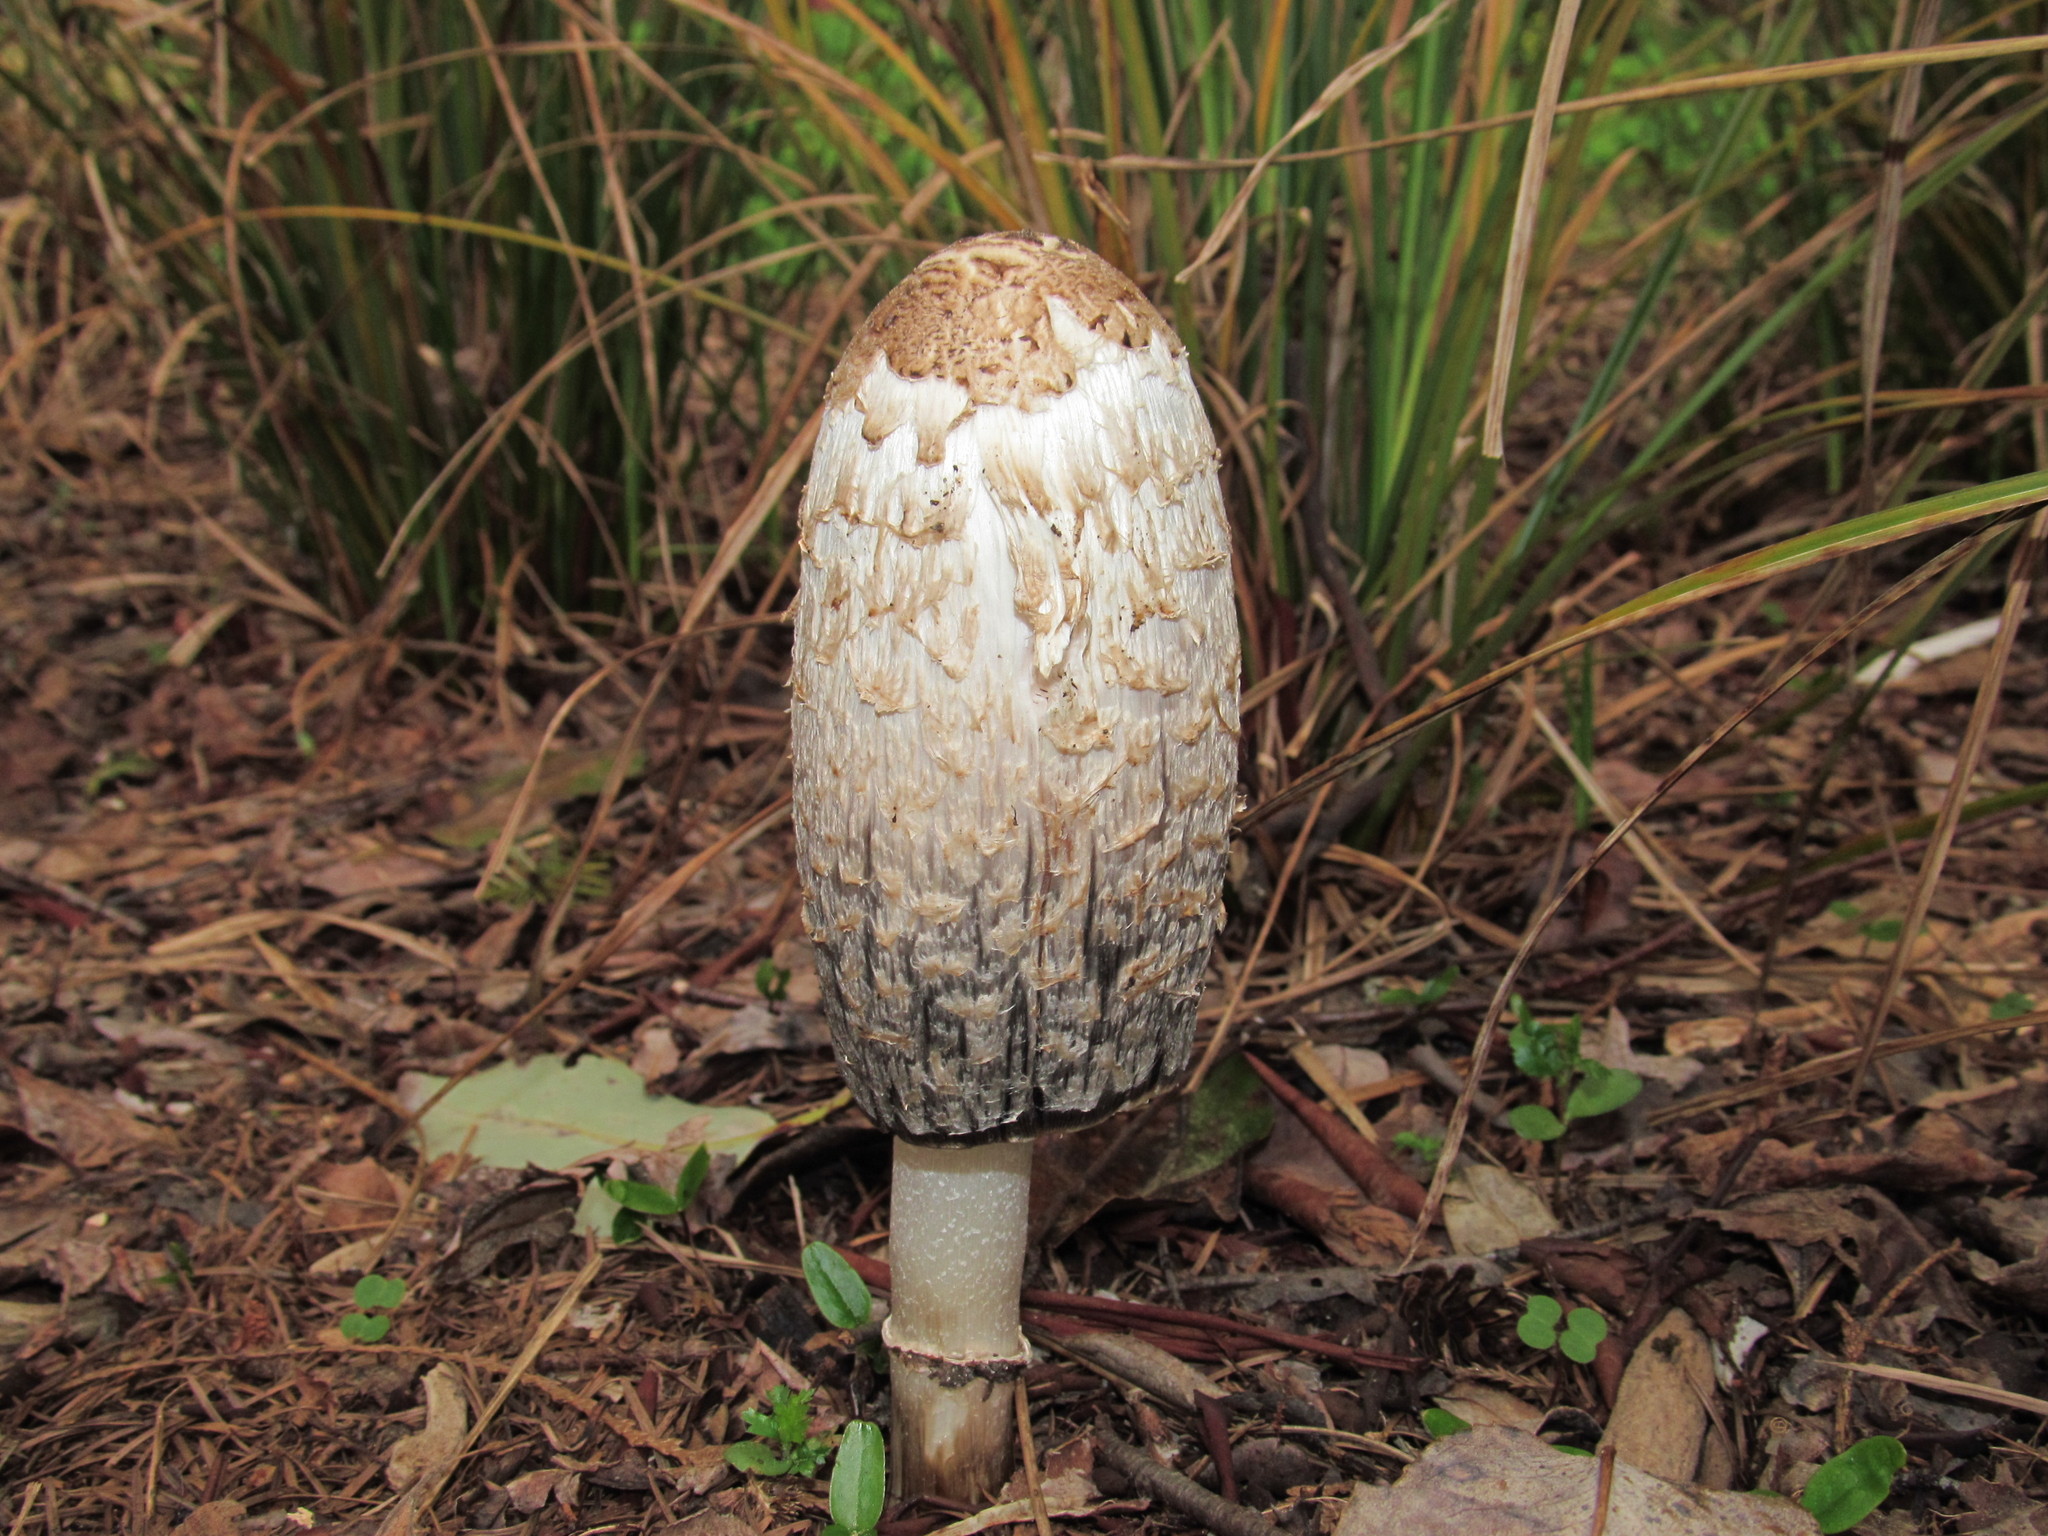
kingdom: Fungi
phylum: Basidiomycota
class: Agaricomycetes
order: Agaricales
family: Agaricaceae
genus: Coprinus
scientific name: Coprinus comatus
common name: Lawyer's wig
